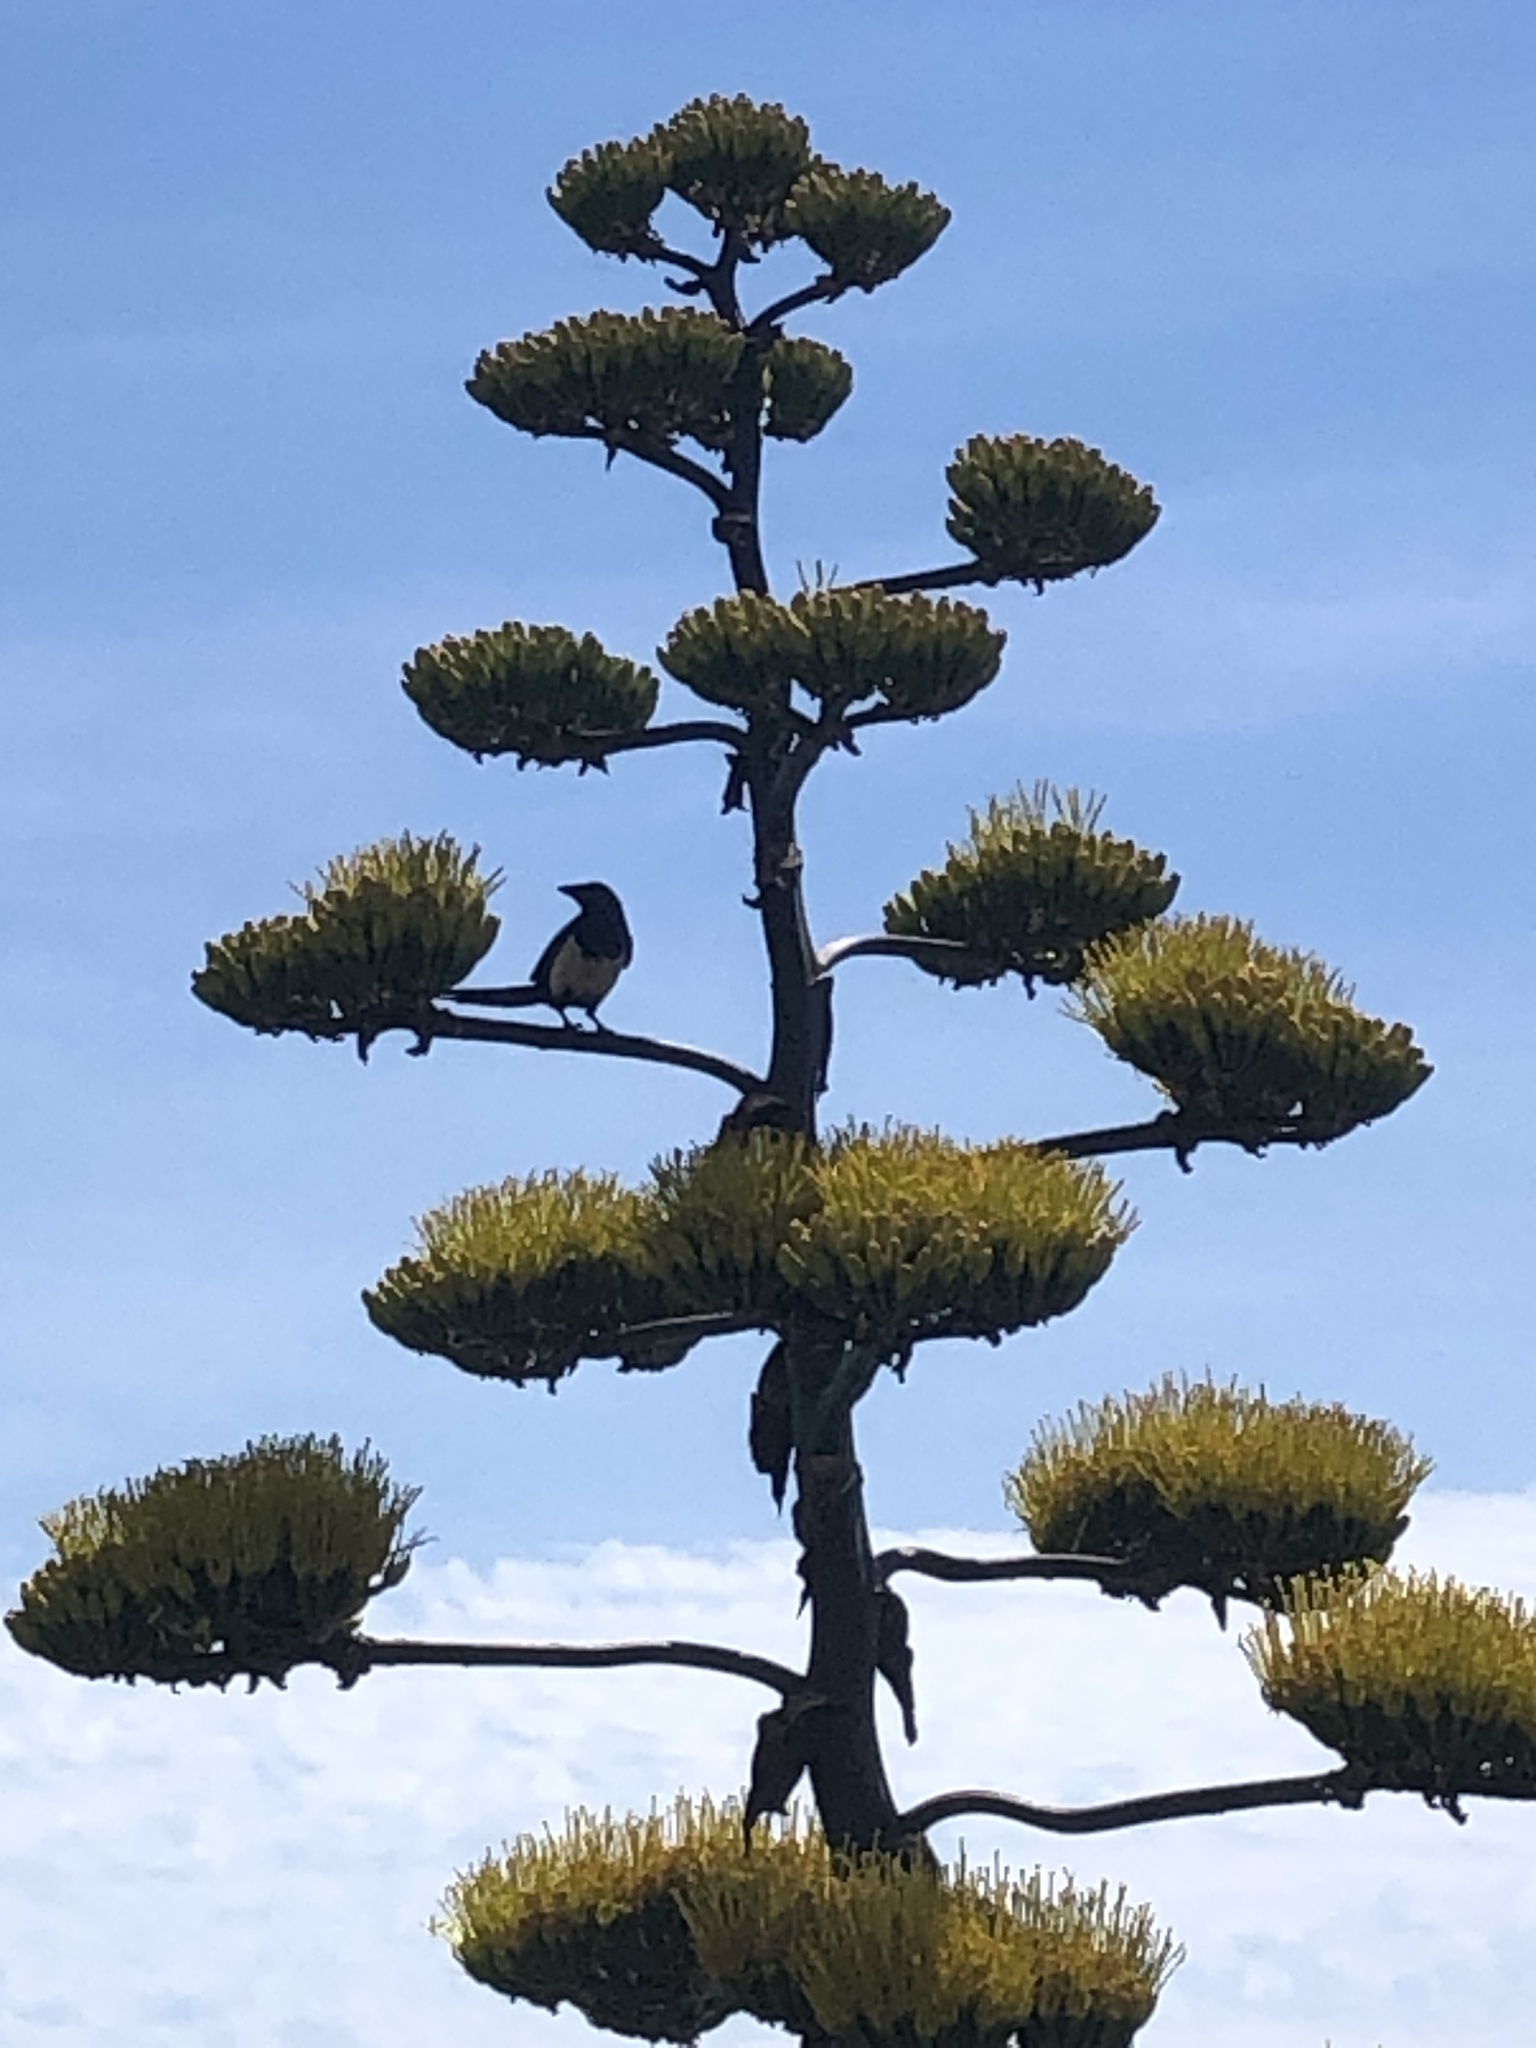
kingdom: Animalia
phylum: Chordata
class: Aves
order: Passeriformes
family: Corvidae
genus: Pica
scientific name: Pica pica
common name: Eurasian magpie
